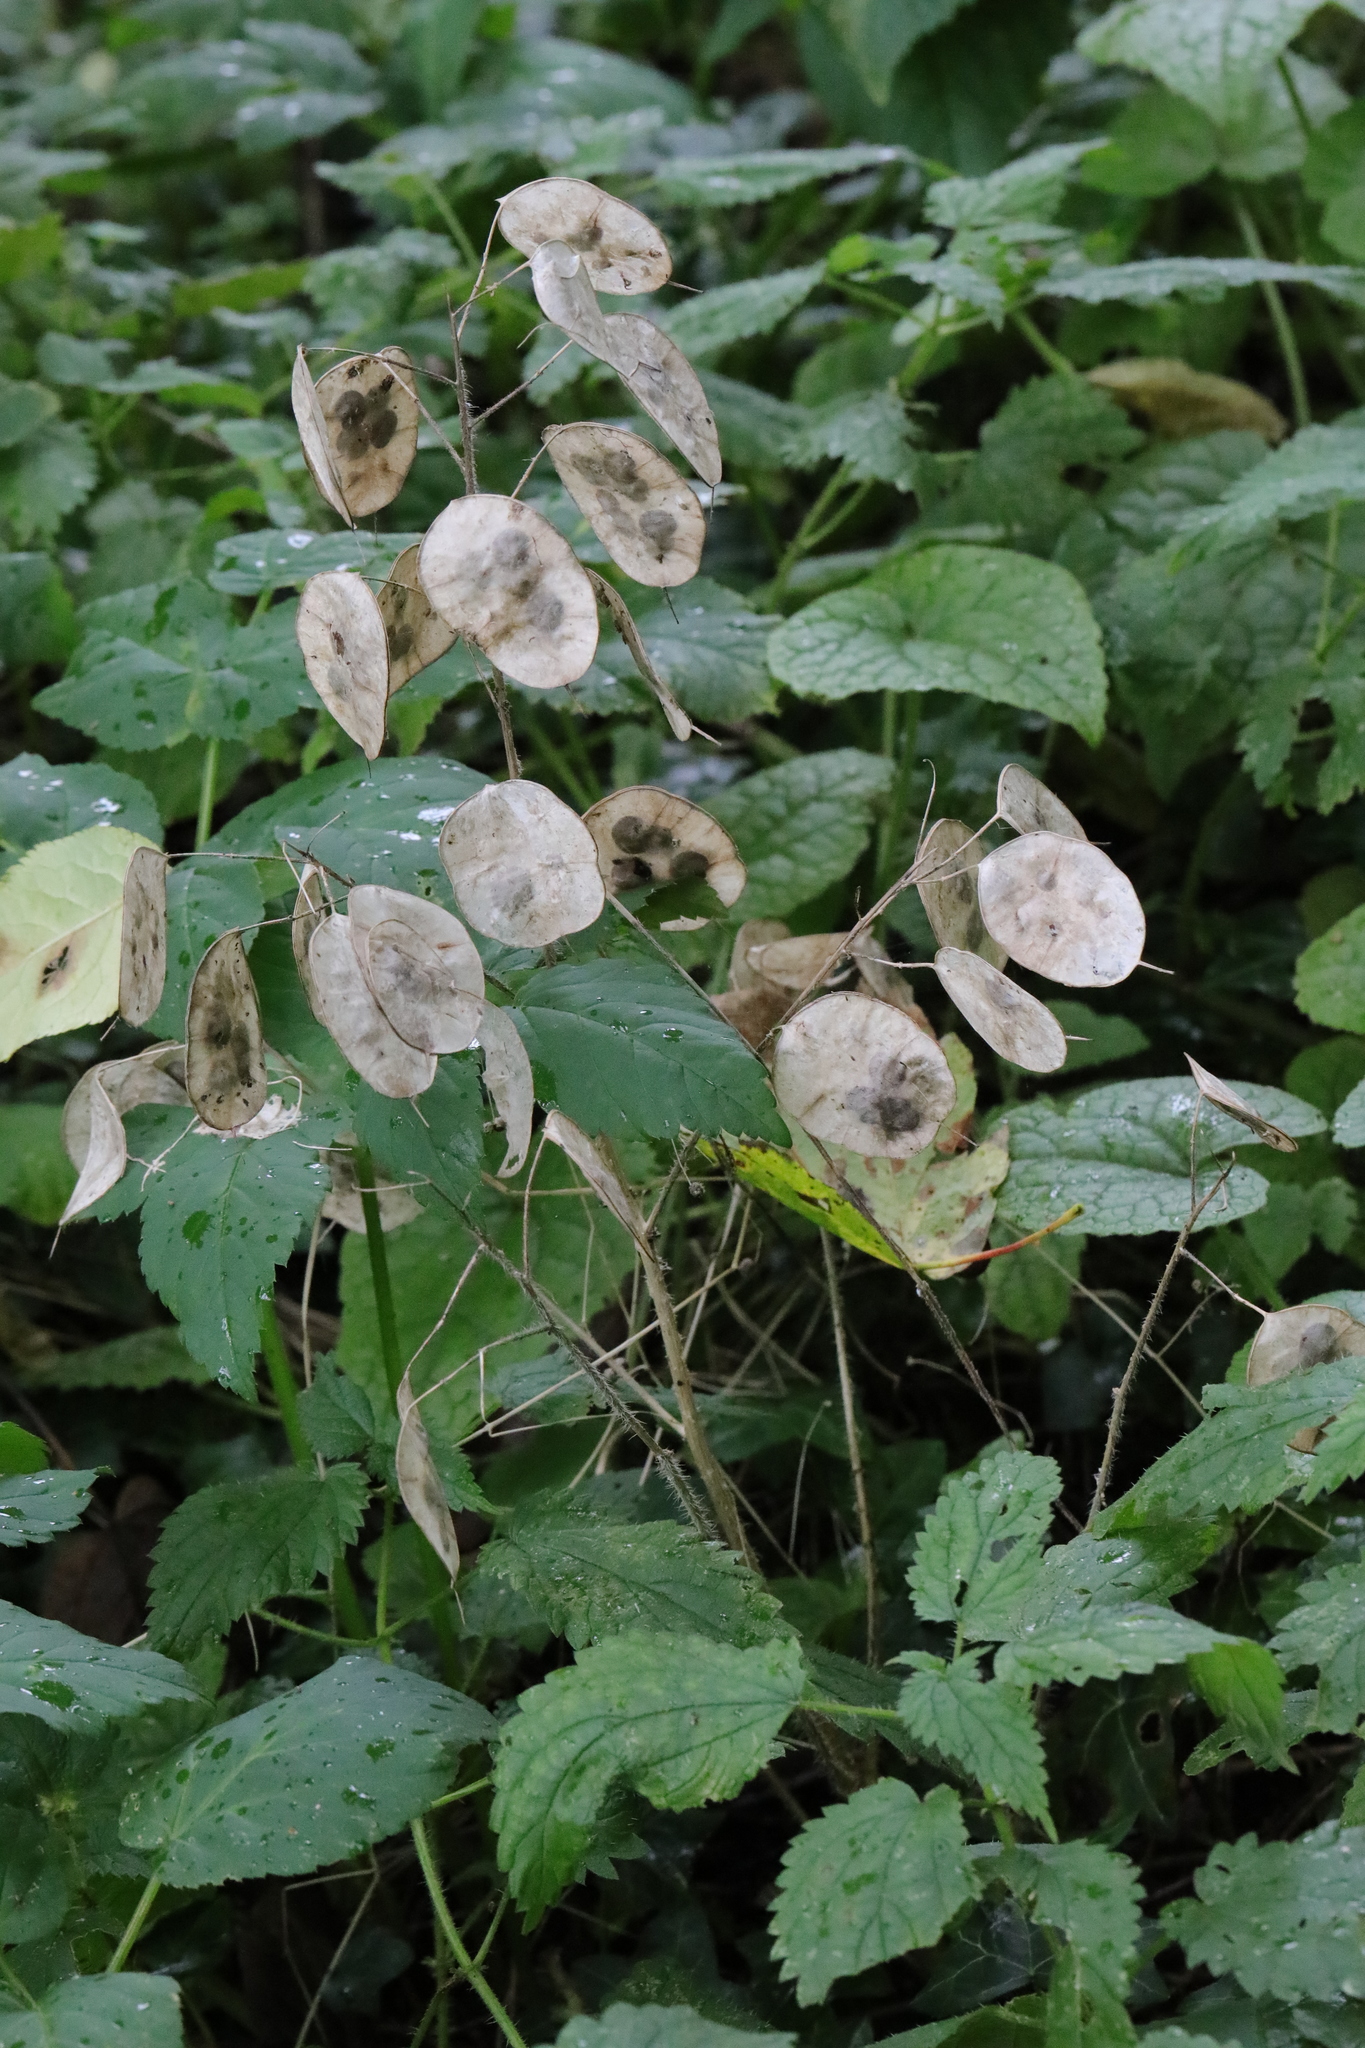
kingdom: Plantae
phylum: Tracheophyta
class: Magnoliopsida
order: Brassicales
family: Brassicaceae
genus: Lunaria
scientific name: Lunaria annua
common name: Honesty
